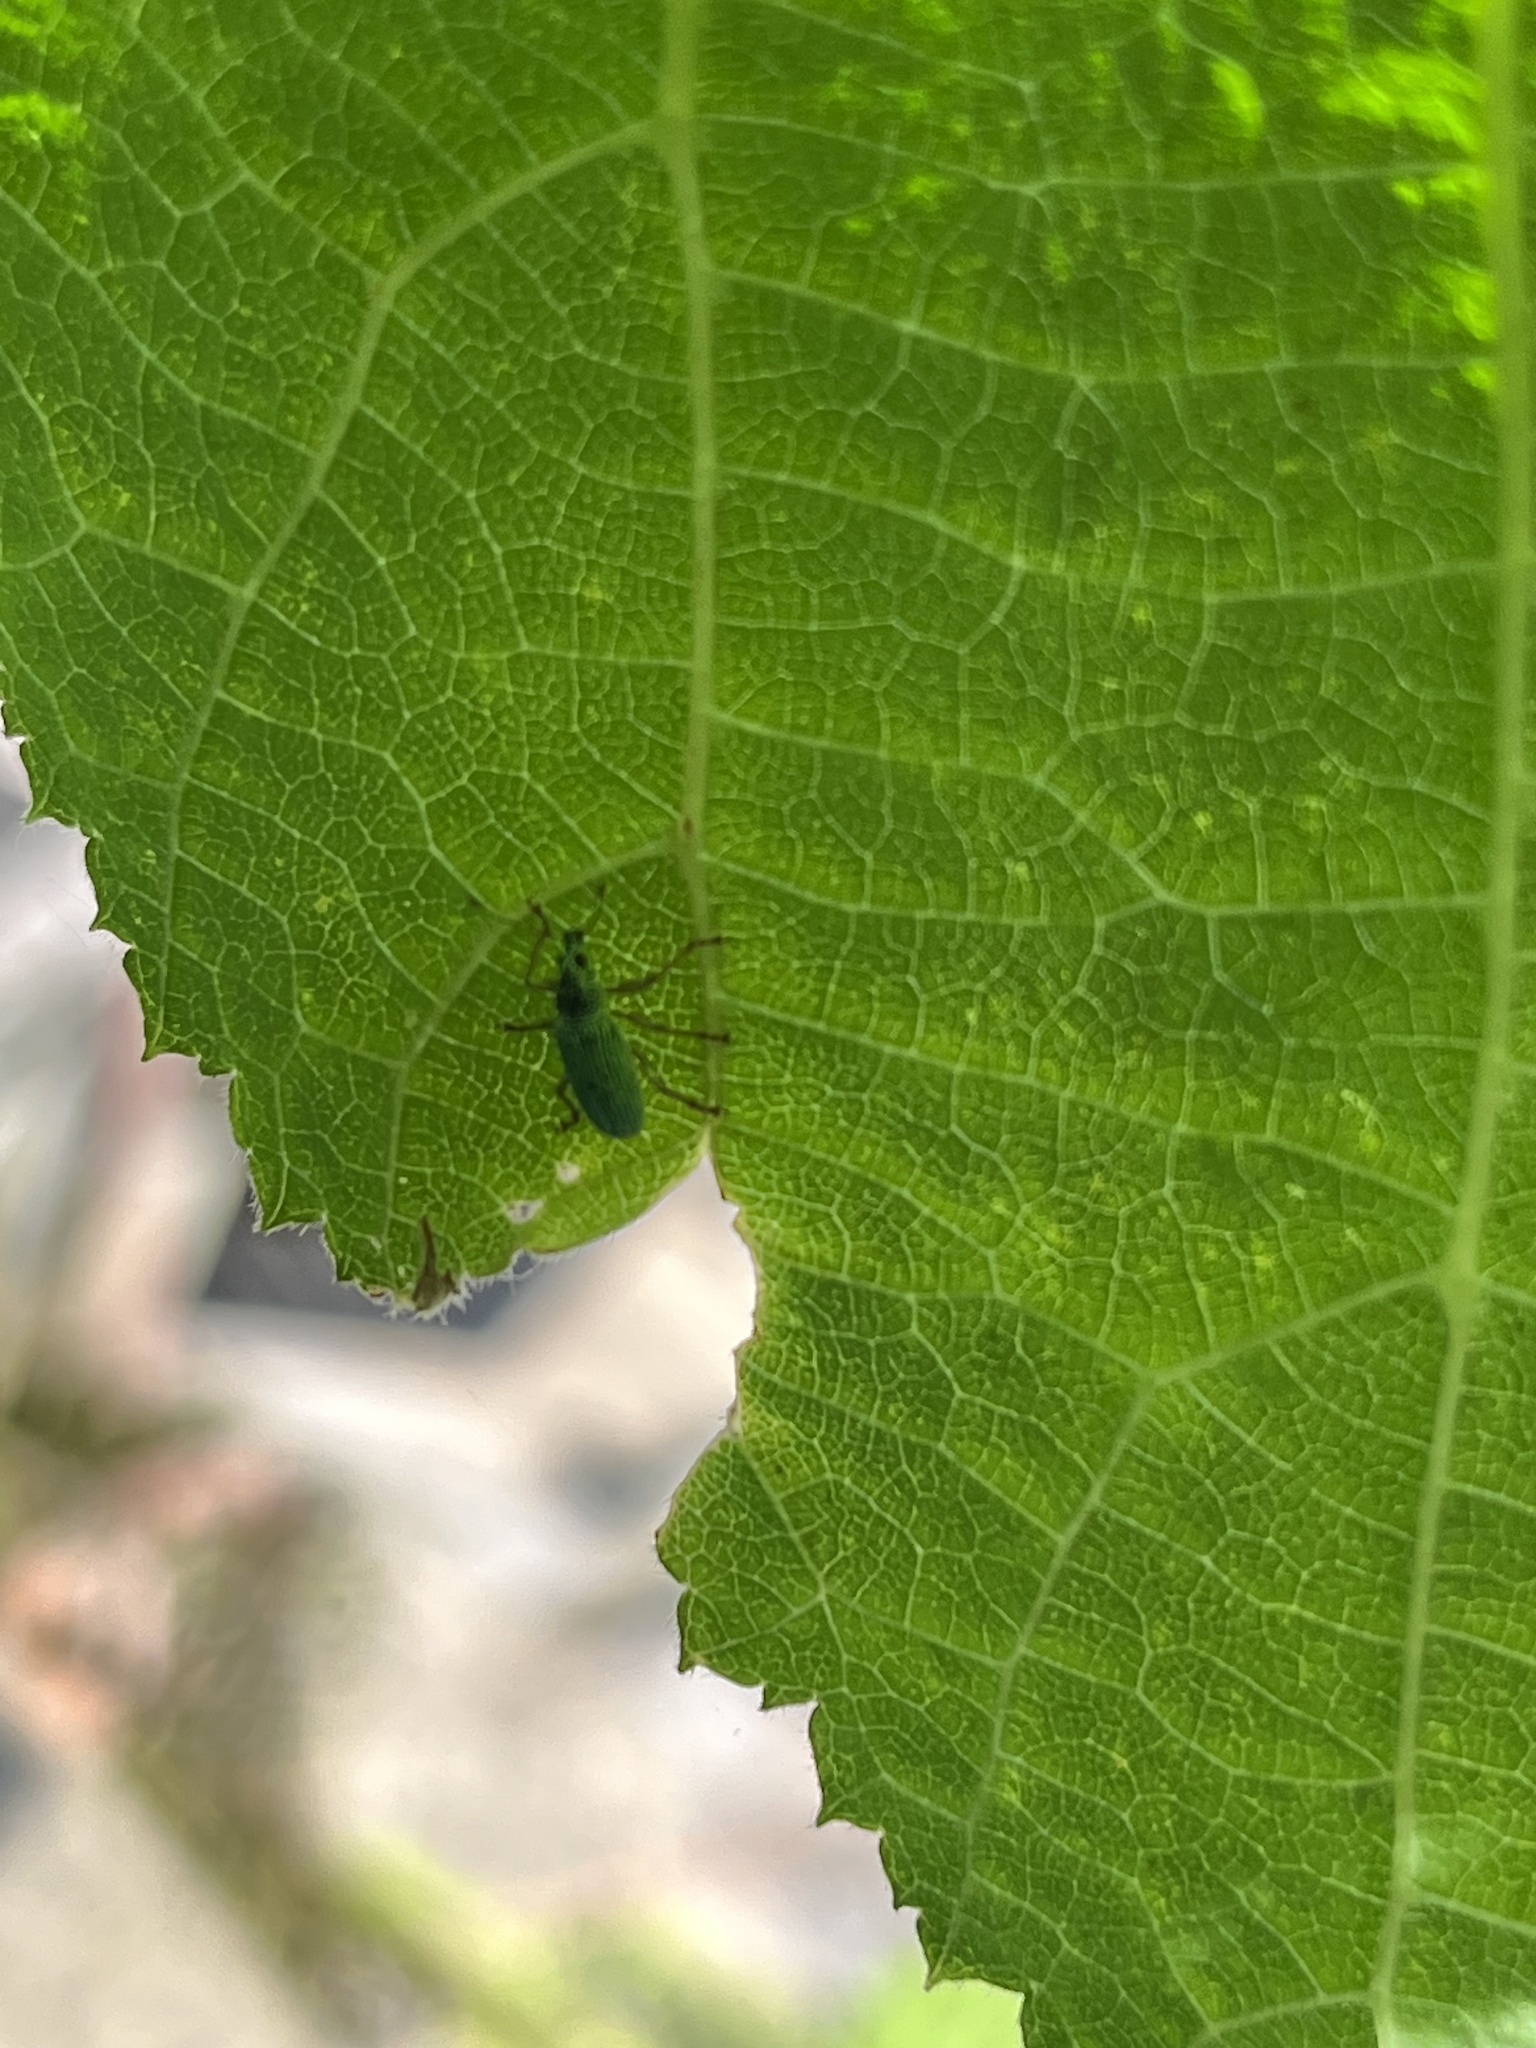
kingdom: Animalia
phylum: Arthropoda
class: Insecta
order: Coleoptera
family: Curculionidae
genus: Polydrusus
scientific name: Polydrusus formosus
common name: Weevil
